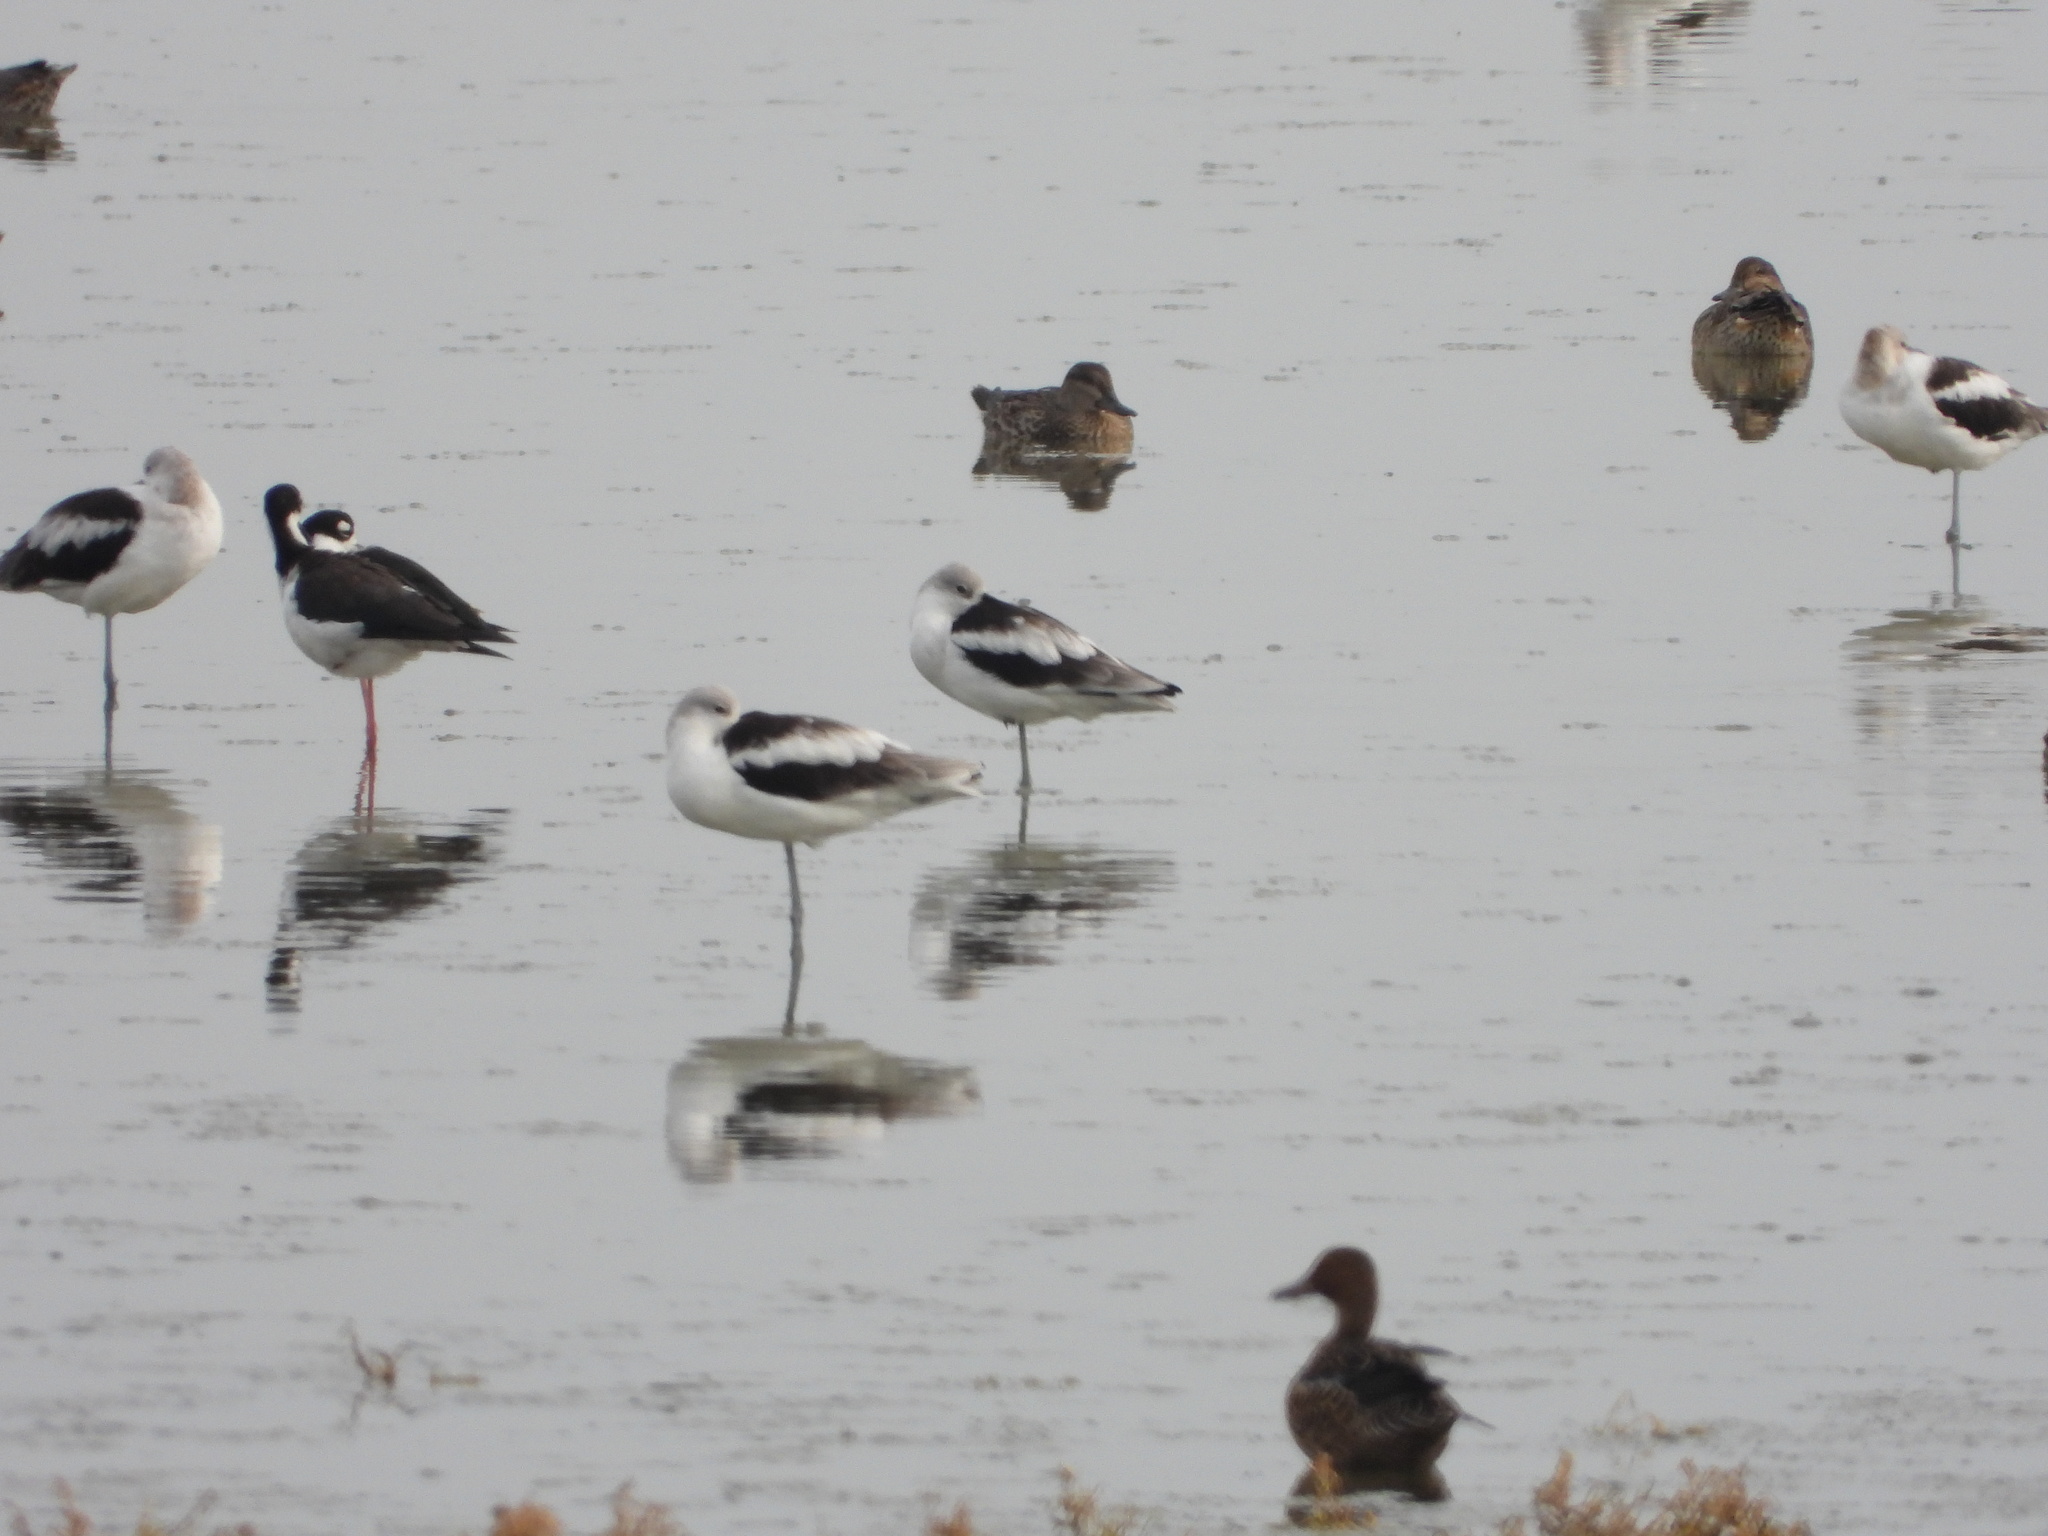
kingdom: Animalia
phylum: Chordata
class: Aves
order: Charadriiformes
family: Recurvirostridae
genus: Himantopus
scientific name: Himantopus mexicanus
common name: Black-necked stilt
